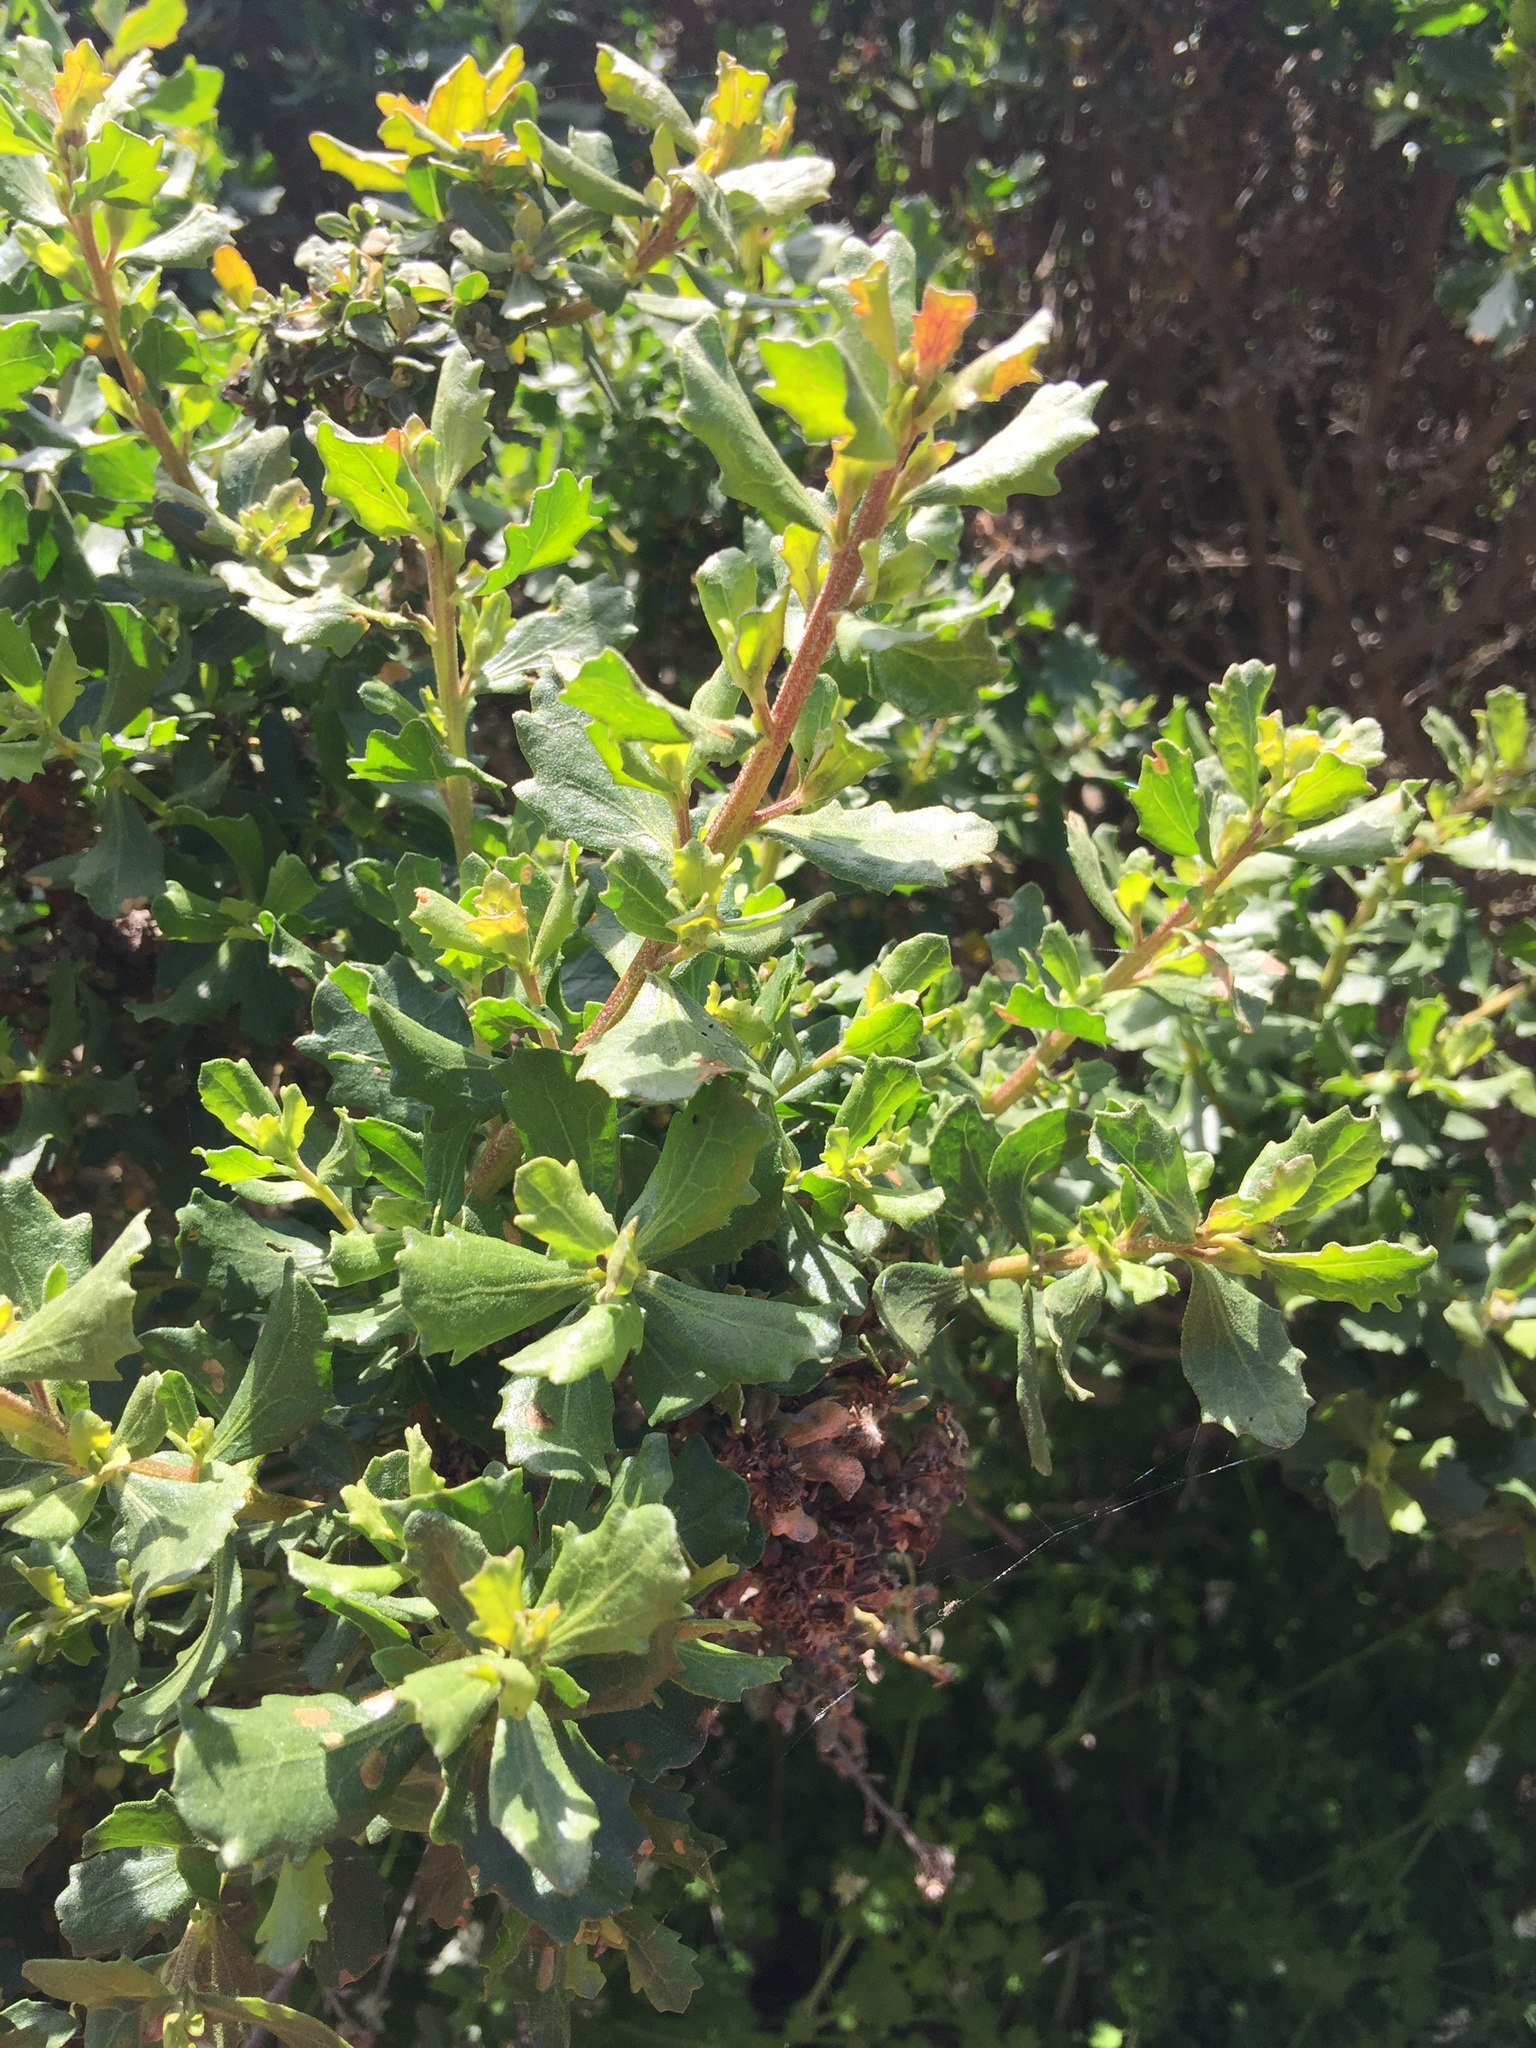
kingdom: Plantae
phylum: Tracheophyta
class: Magnoliopsida
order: Asterales
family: Asteraceae
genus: Baccharis
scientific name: Baccharis pilularis
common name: Coyotebrush
